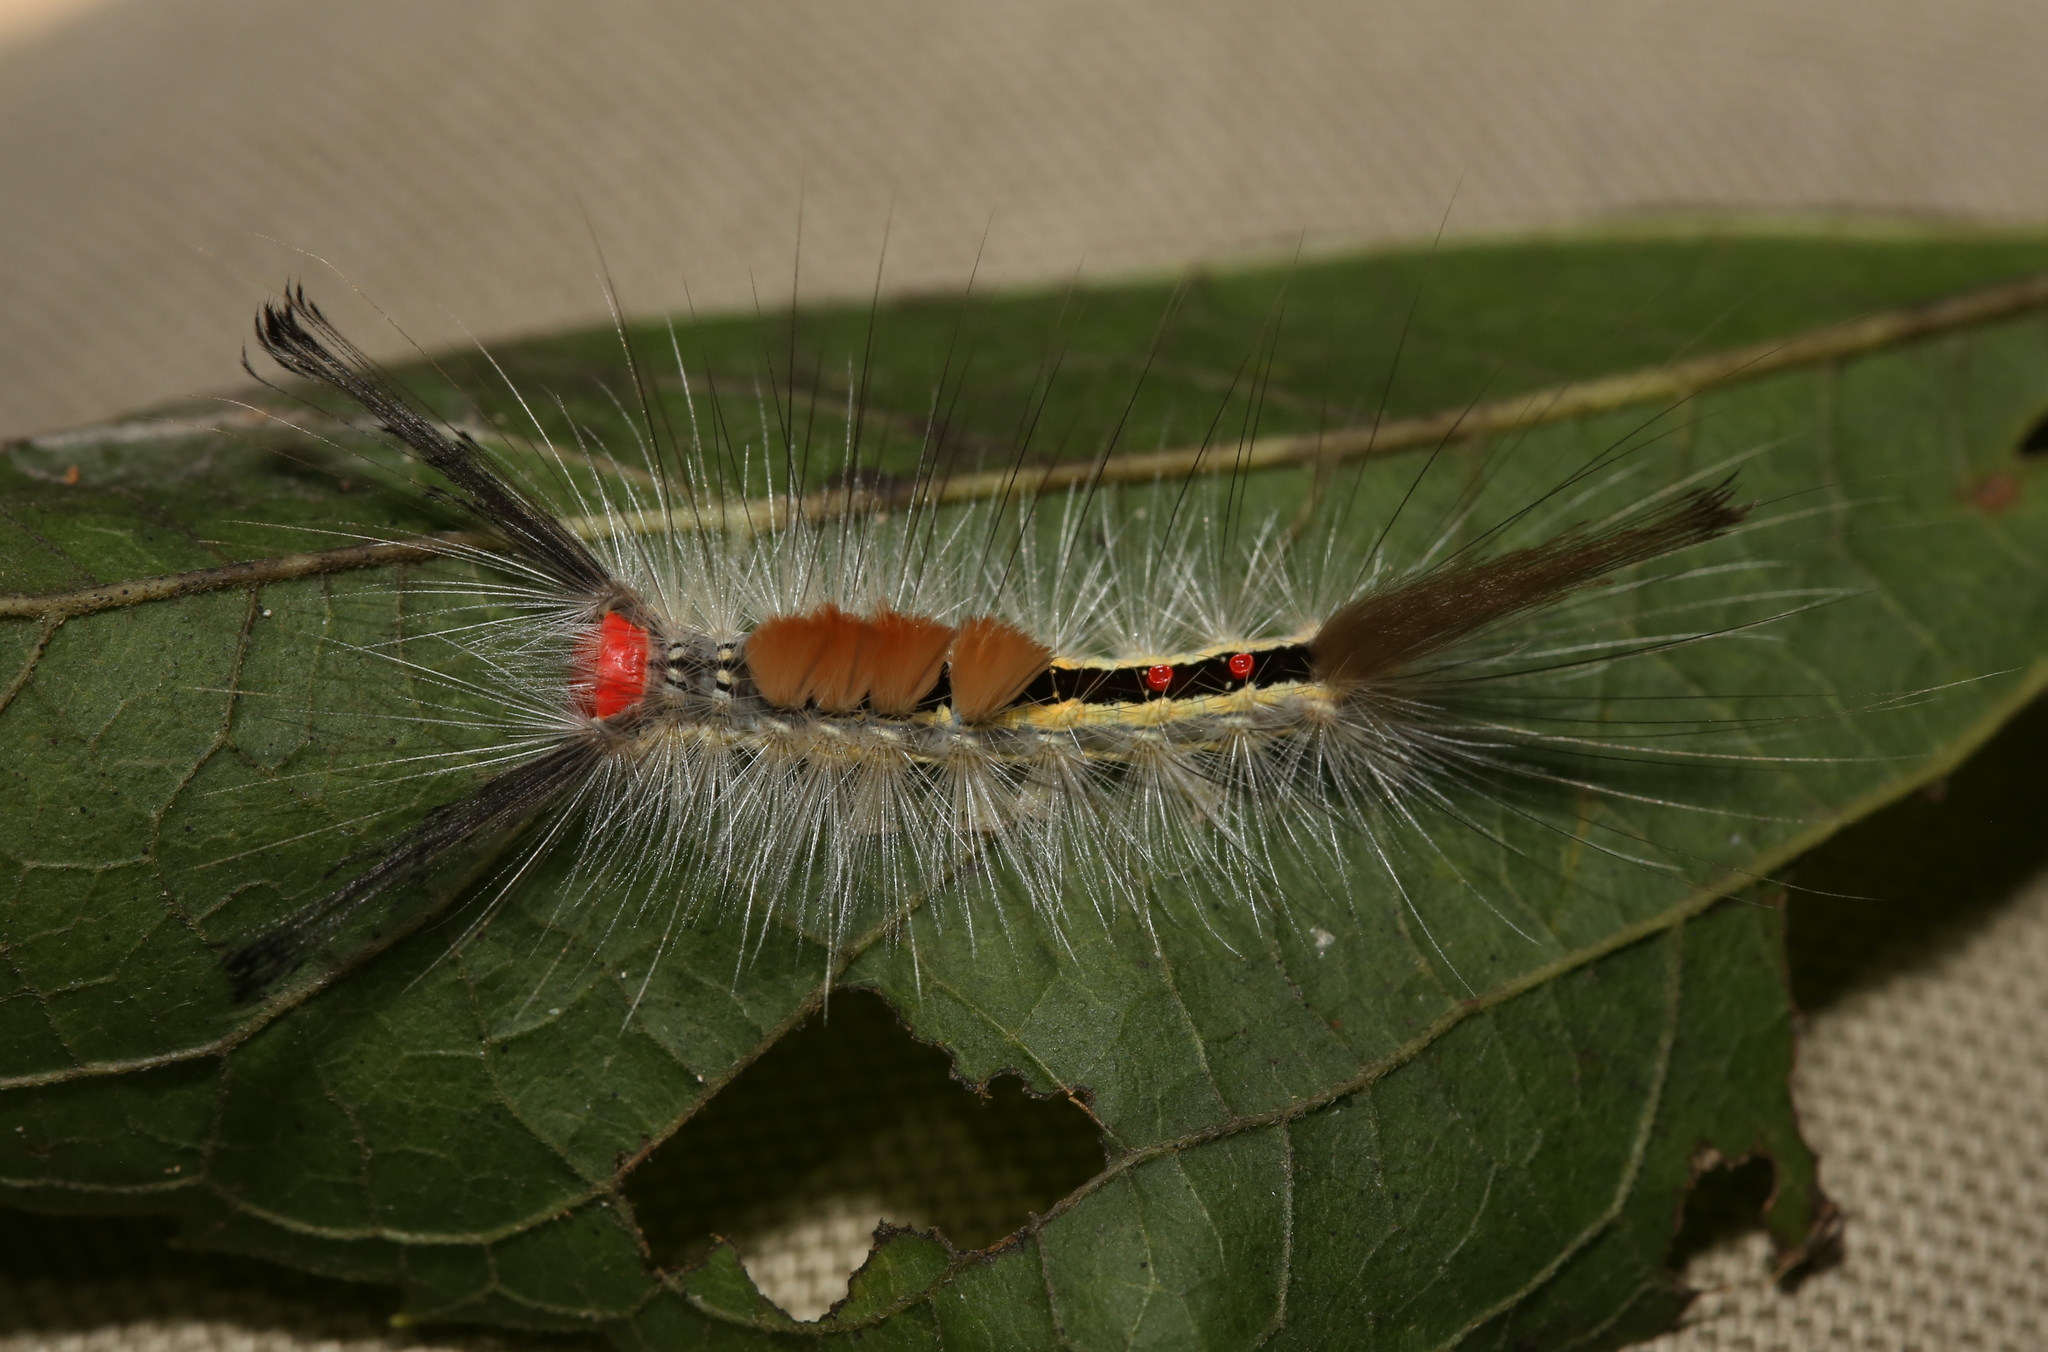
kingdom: Animalia
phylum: Arthropoda
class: Insecta
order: Lepidoptera
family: Erebidae
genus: Orgyia
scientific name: Orgyia leucostigma
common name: White-marked tussock moth
